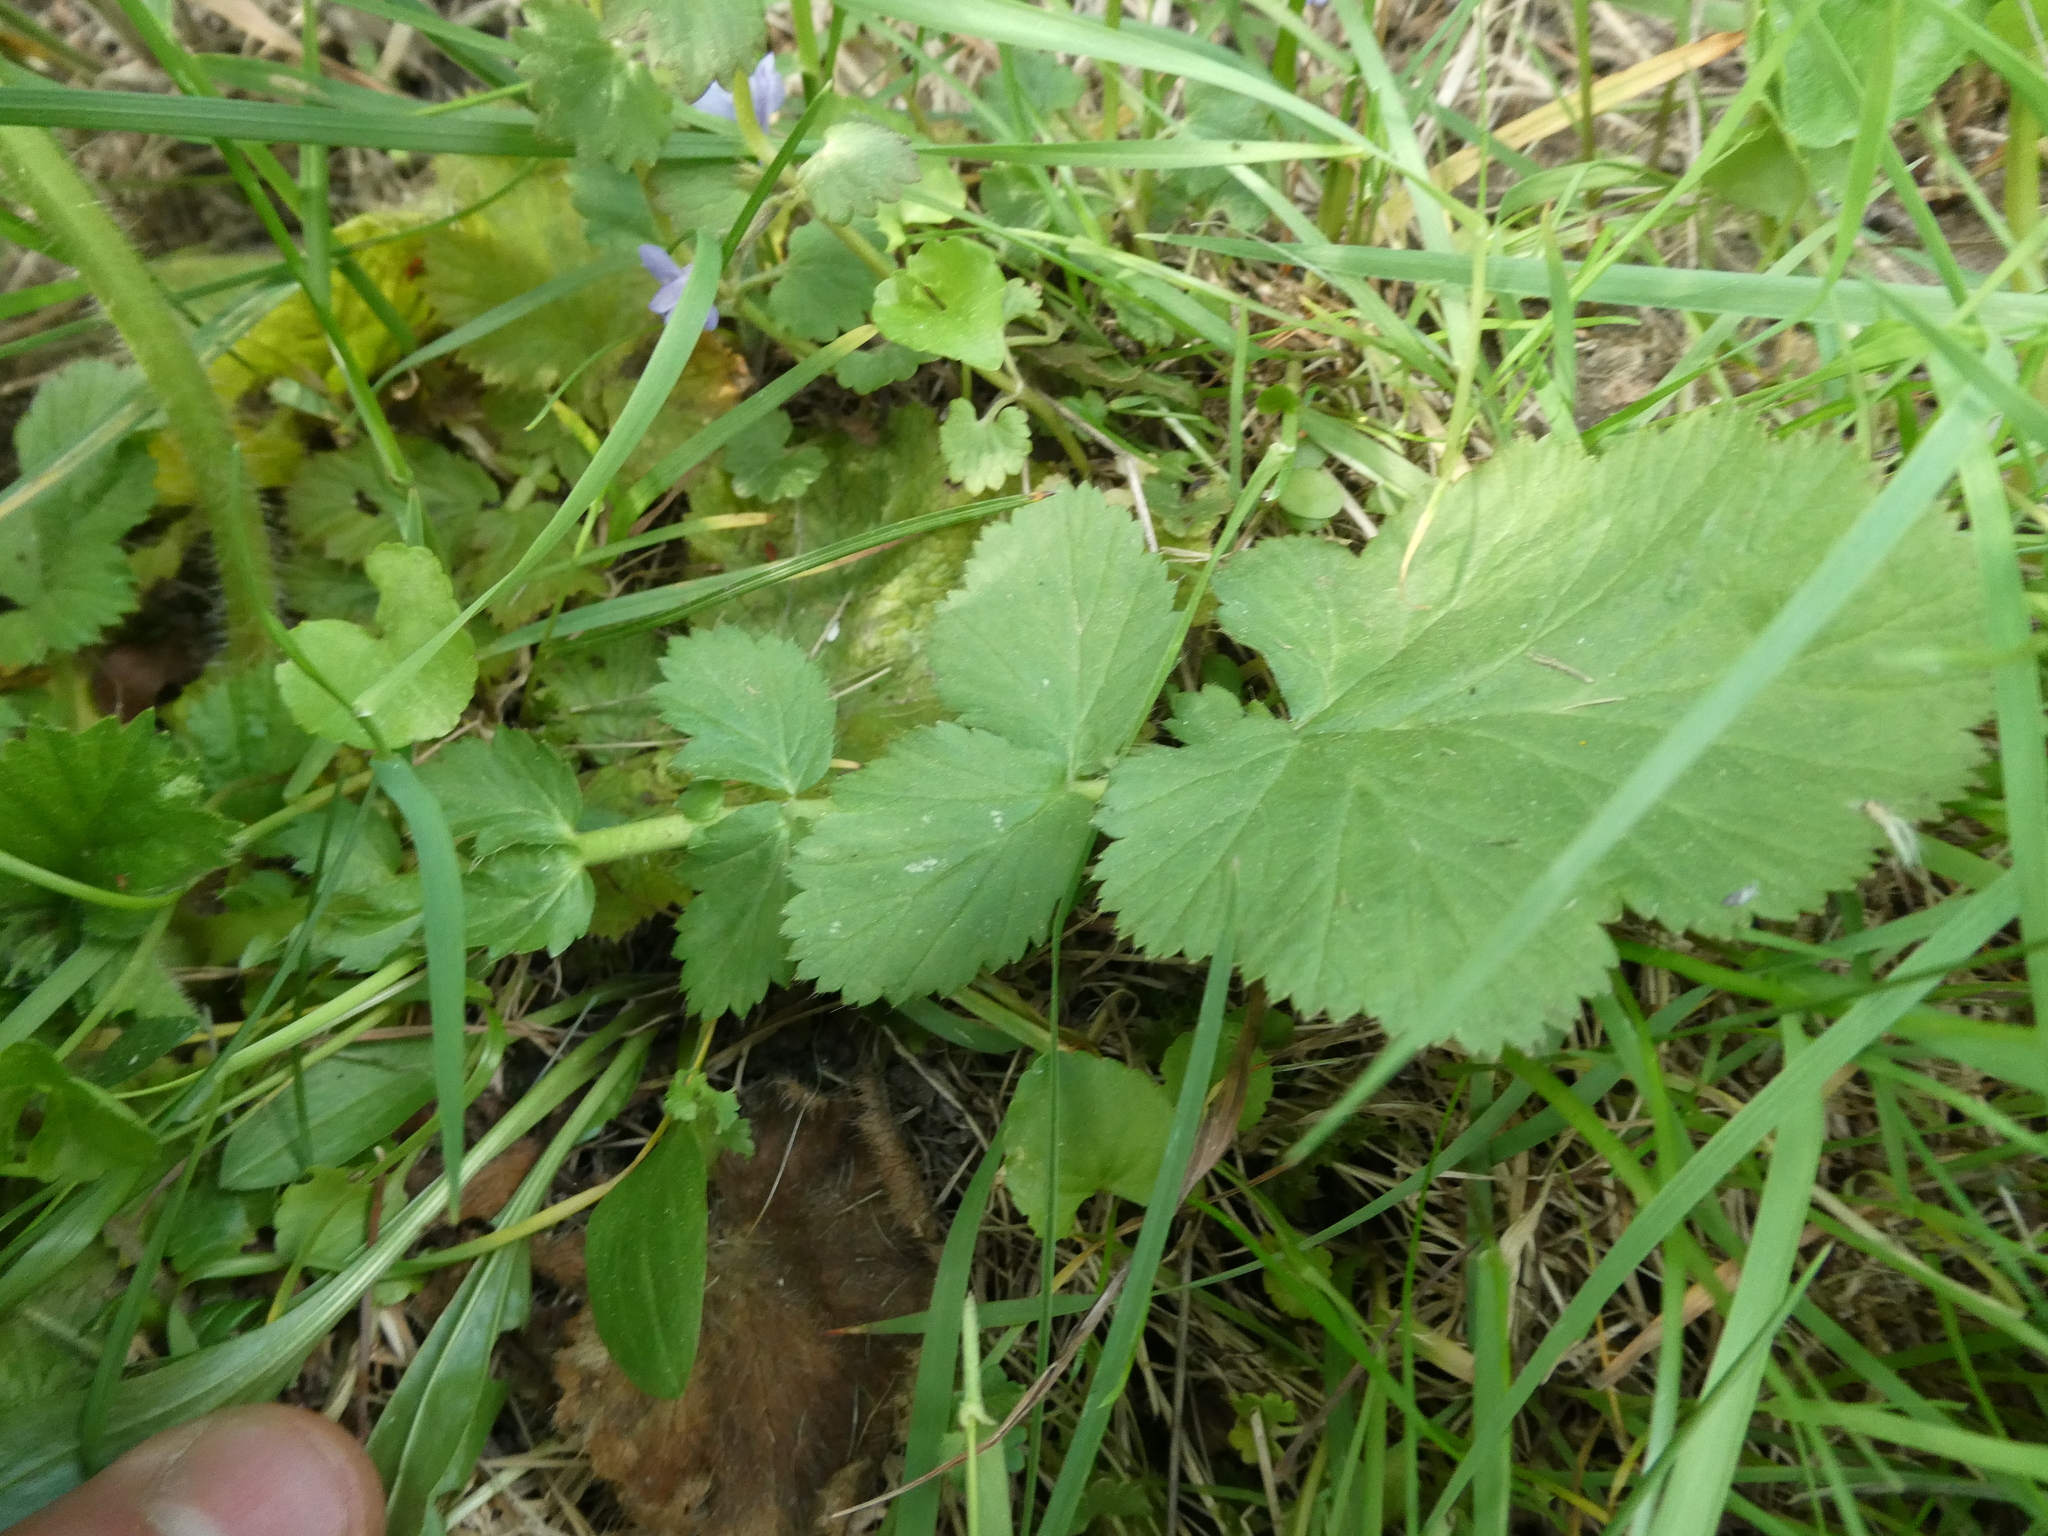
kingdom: Plantae
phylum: Tracheophyta
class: Magnoliopsida
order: Rosales
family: Rosaceae
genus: Geum
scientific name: Geum macrophyllum
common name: Large-leaved avens
